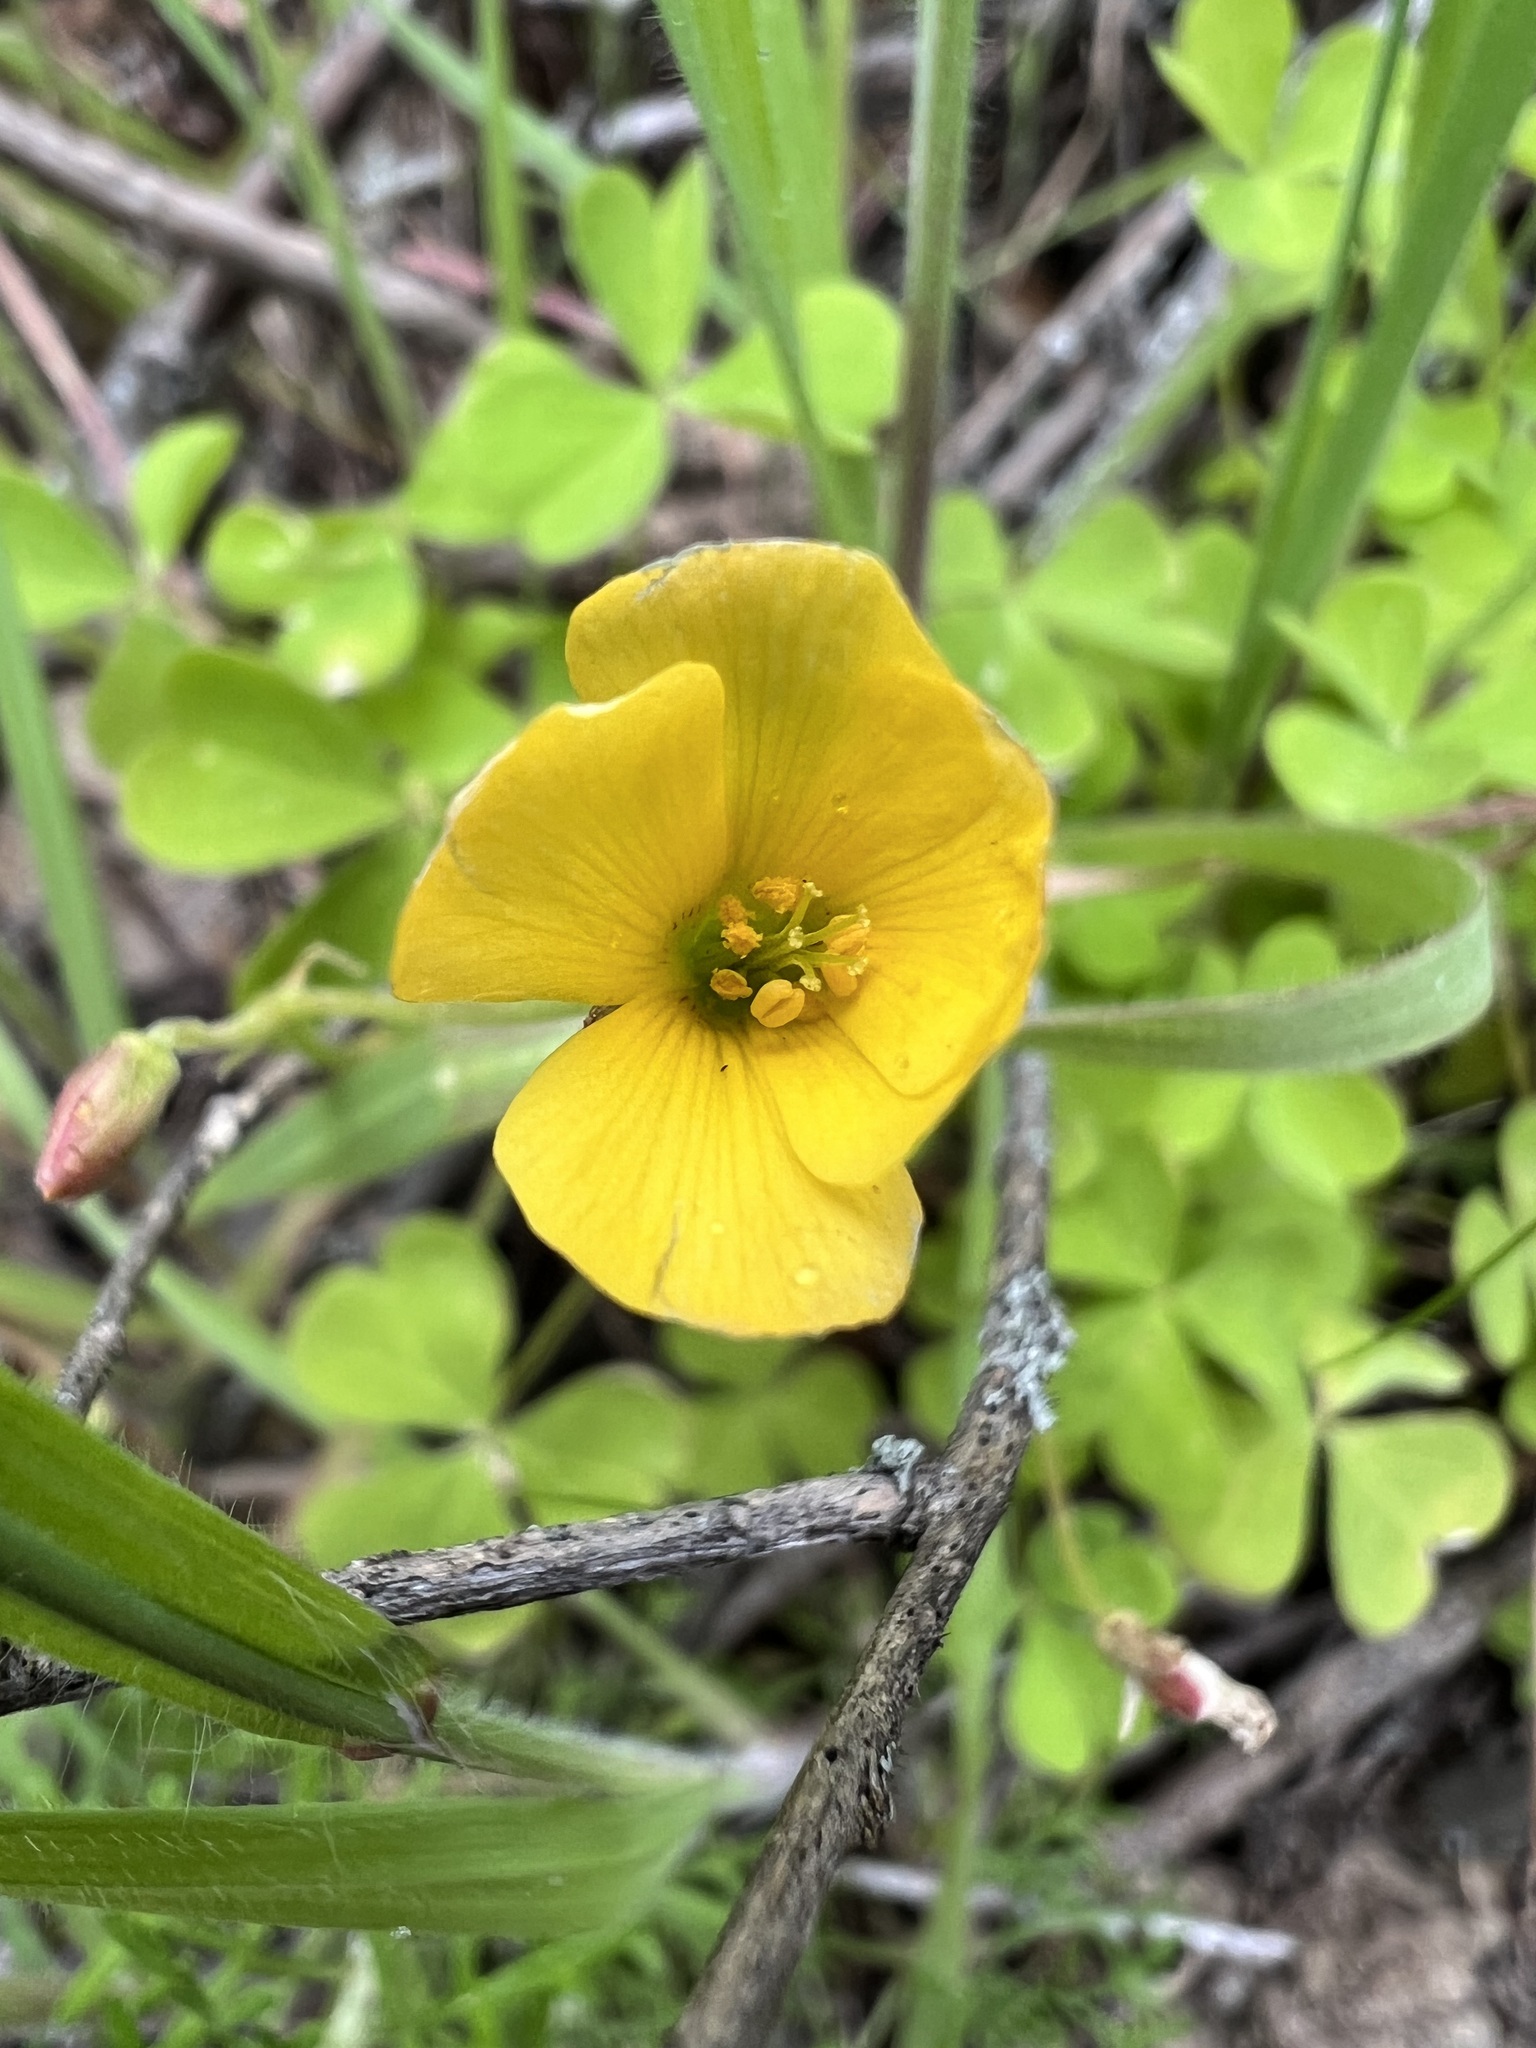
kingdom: Plantae
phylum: Tracheophyta
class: Magnoliopsida
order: Oxalidales
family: Oxalidaceae
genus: Oxalis
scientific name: Oxalis californica
